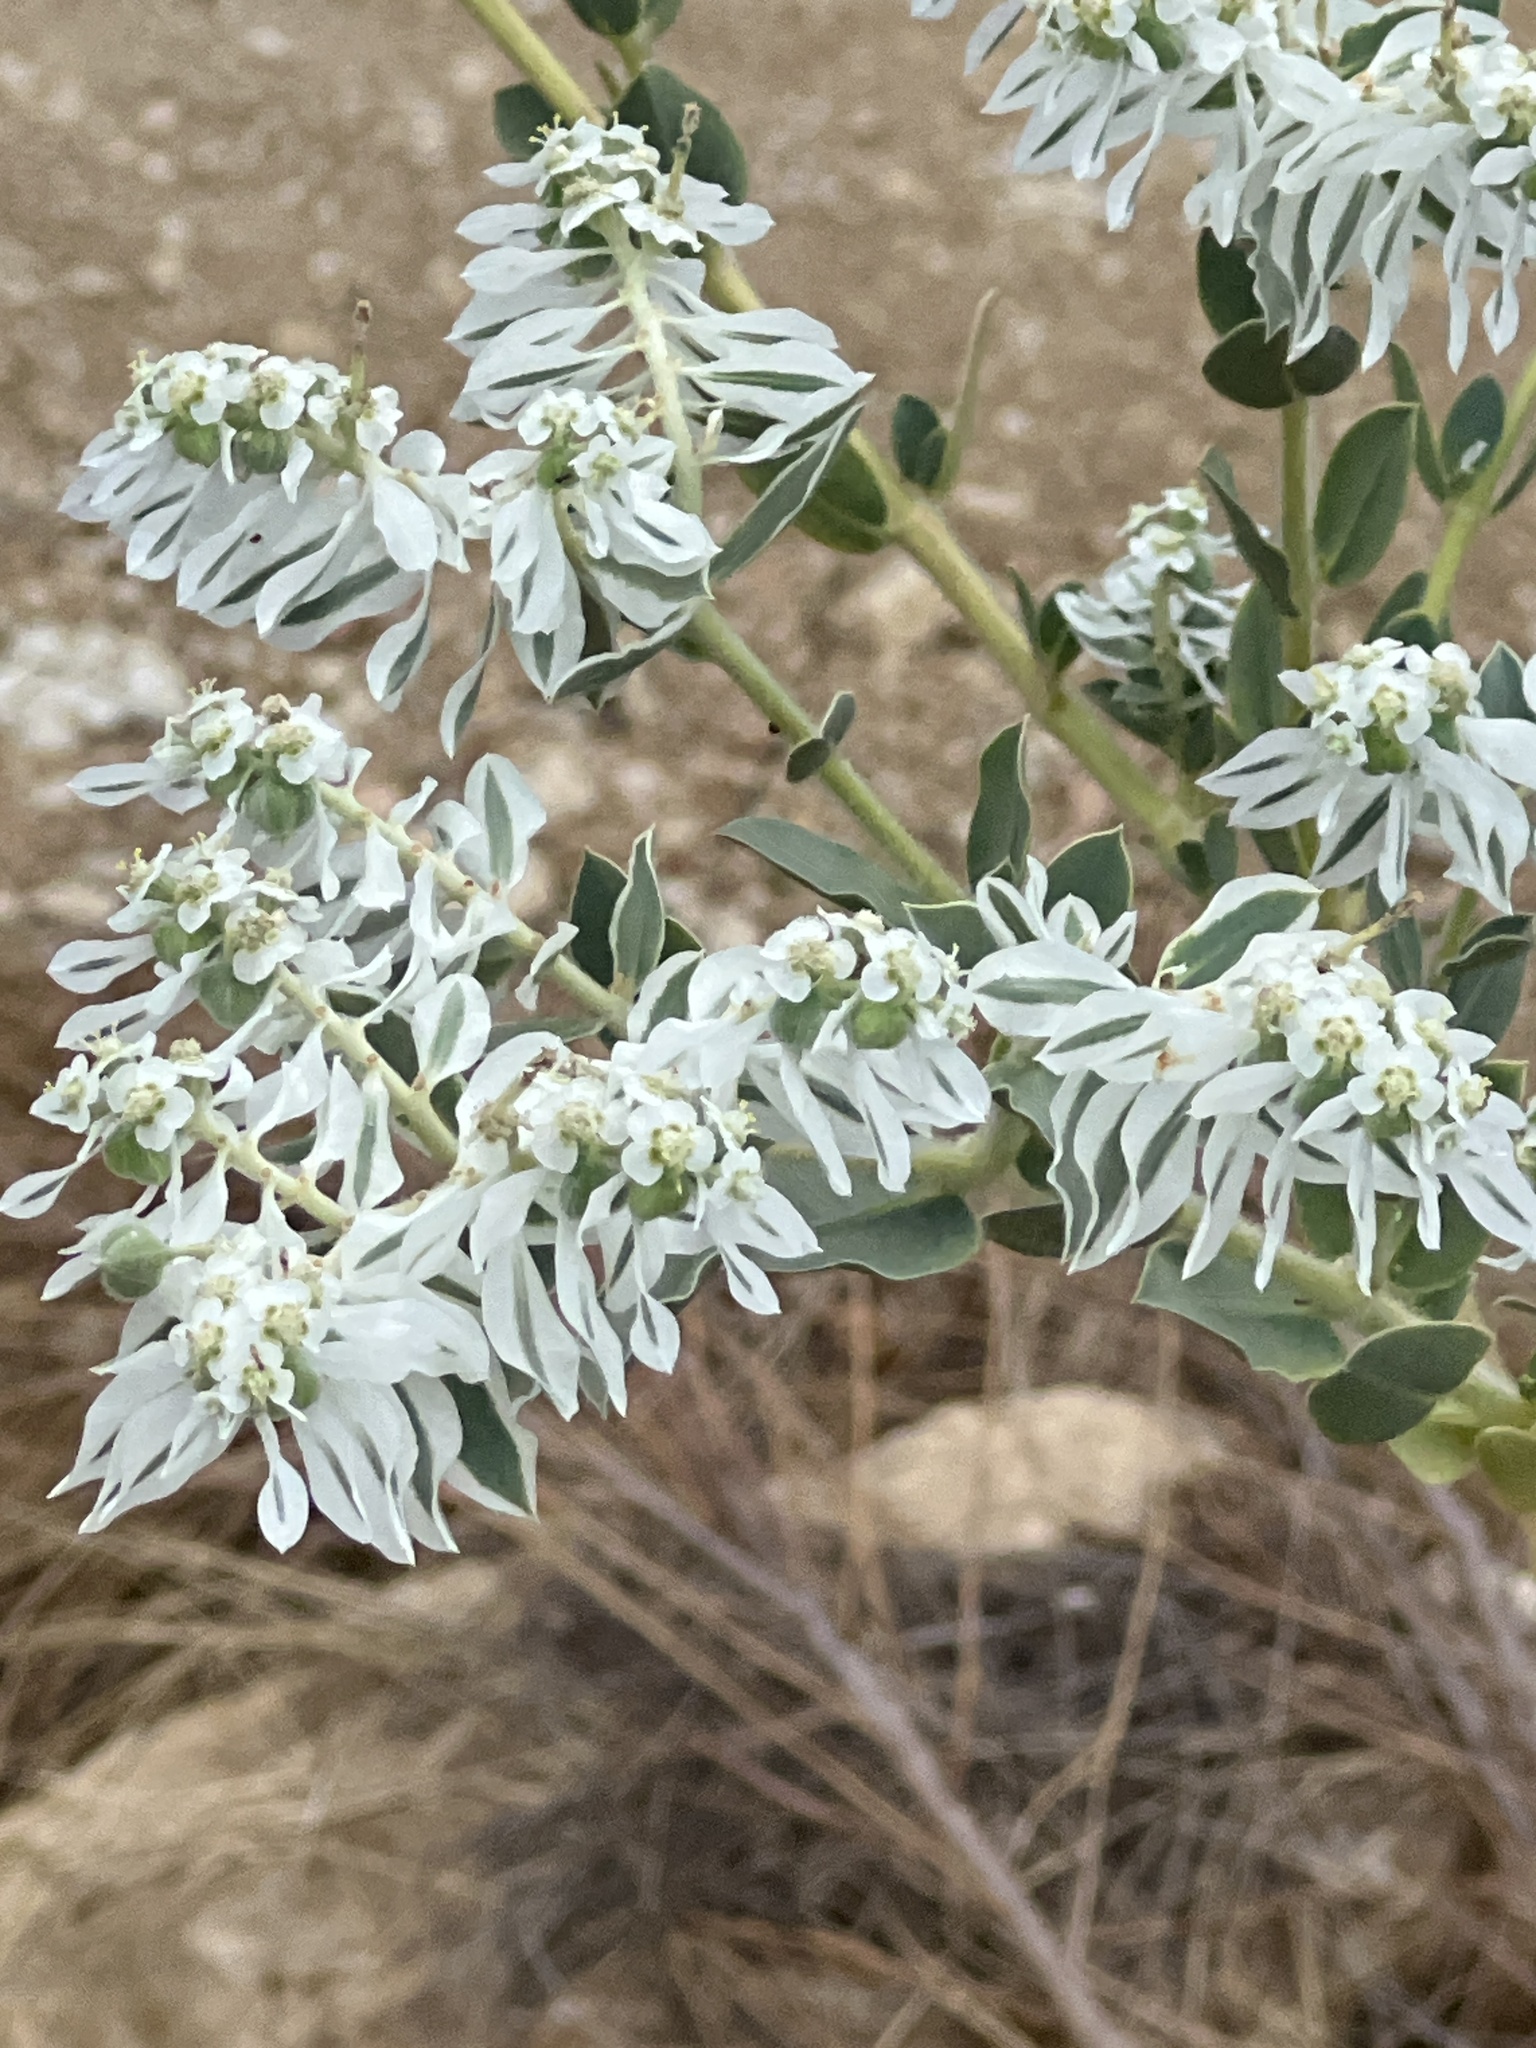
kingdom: Plantae
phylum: Tracheophyta
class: Magnoliopsida
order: Malpighiales
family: Euphorbiaceae
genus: Euphorbia
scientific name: Euphorbia marginata
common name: Ghostweed
